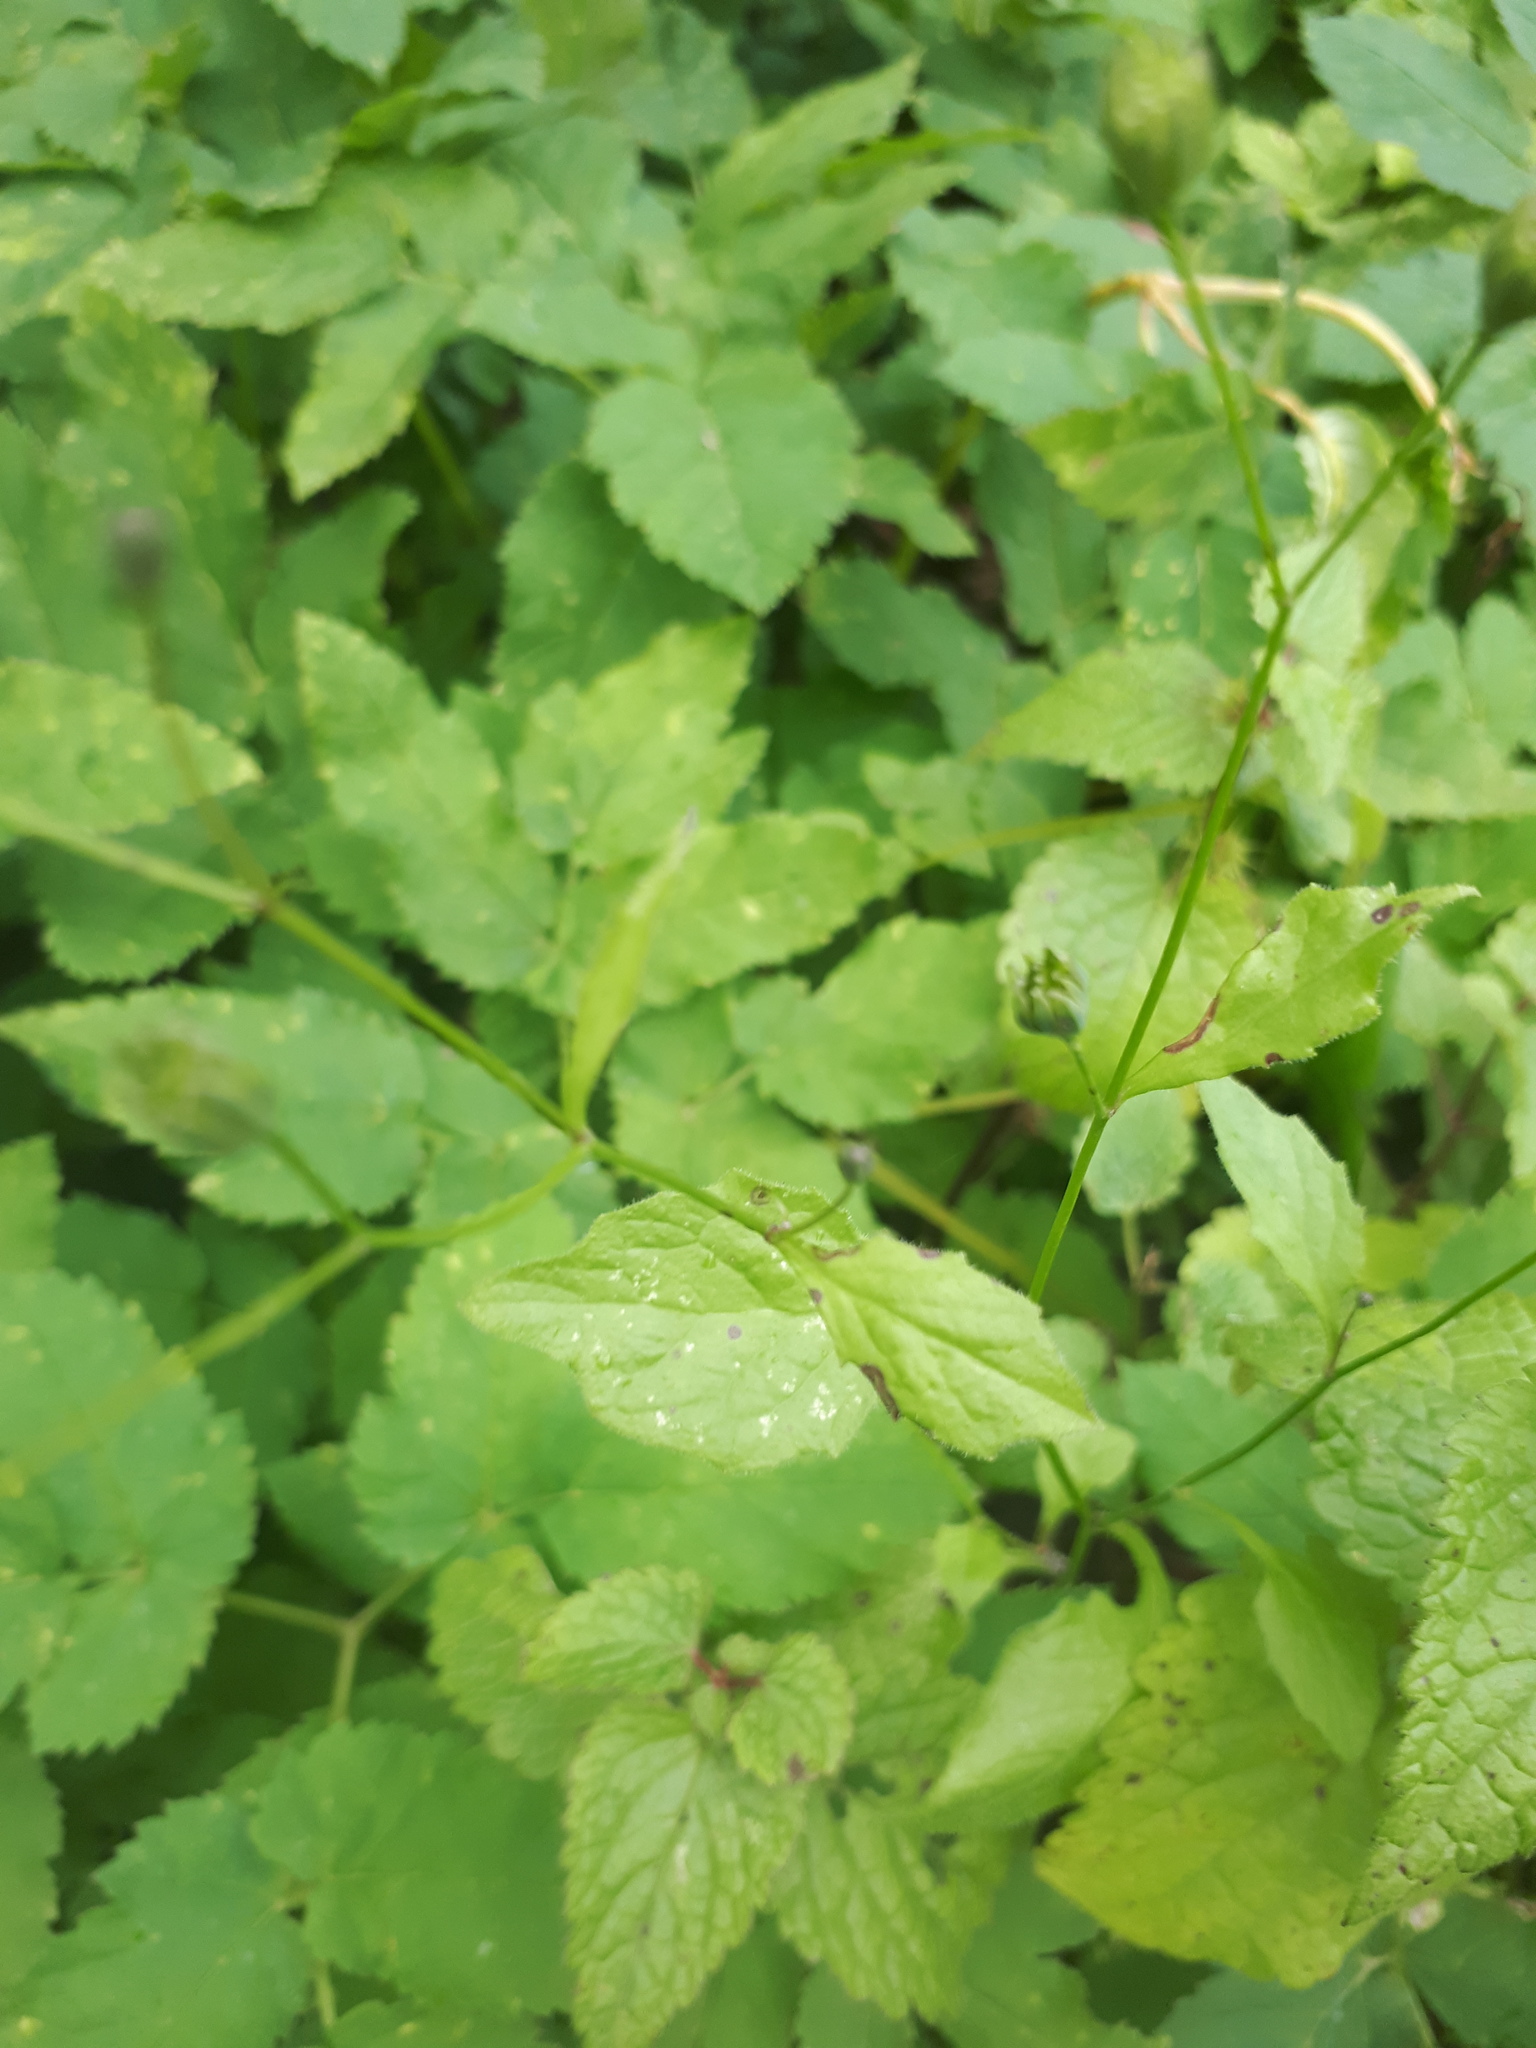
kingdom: Plantae
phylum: Tracheophyta
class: Magnoliopsida
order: Asterales
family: Asteraceae
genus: Lapsana
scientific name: Lapsana communis
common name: Nipplewort
